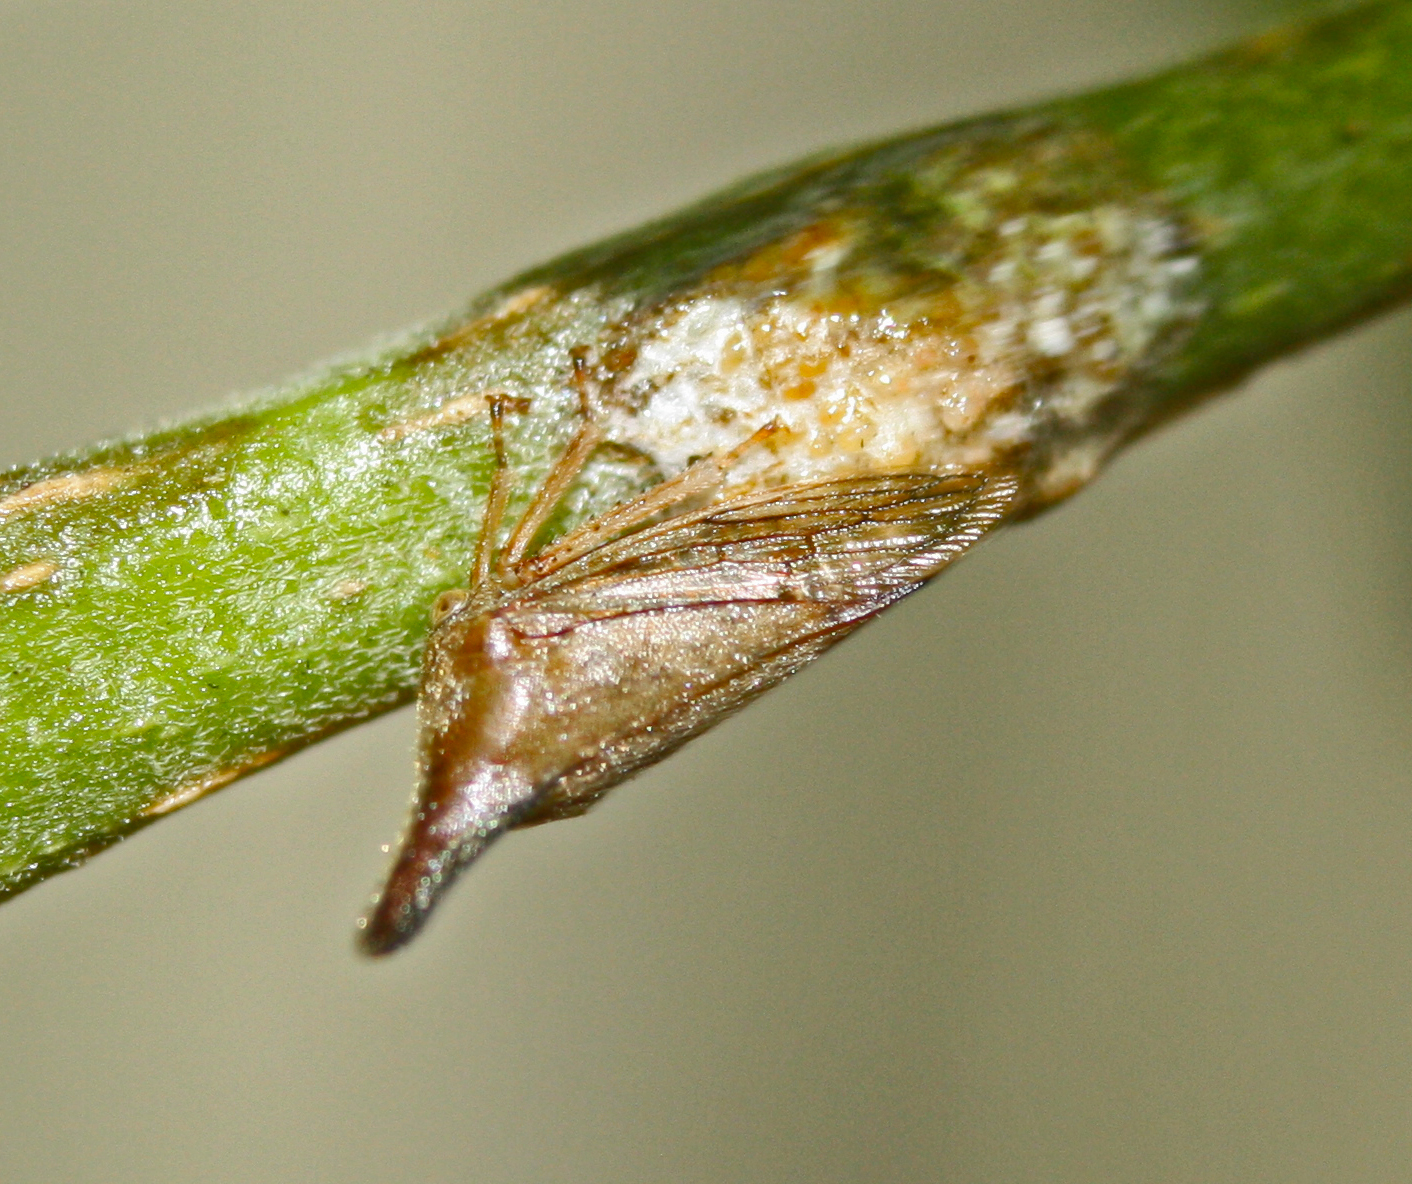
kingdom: Animalia
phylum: Arthropoda
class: Insecta
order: Hemiptera
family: Membracidae
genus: Aconophora
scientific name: Aconophora compressa
